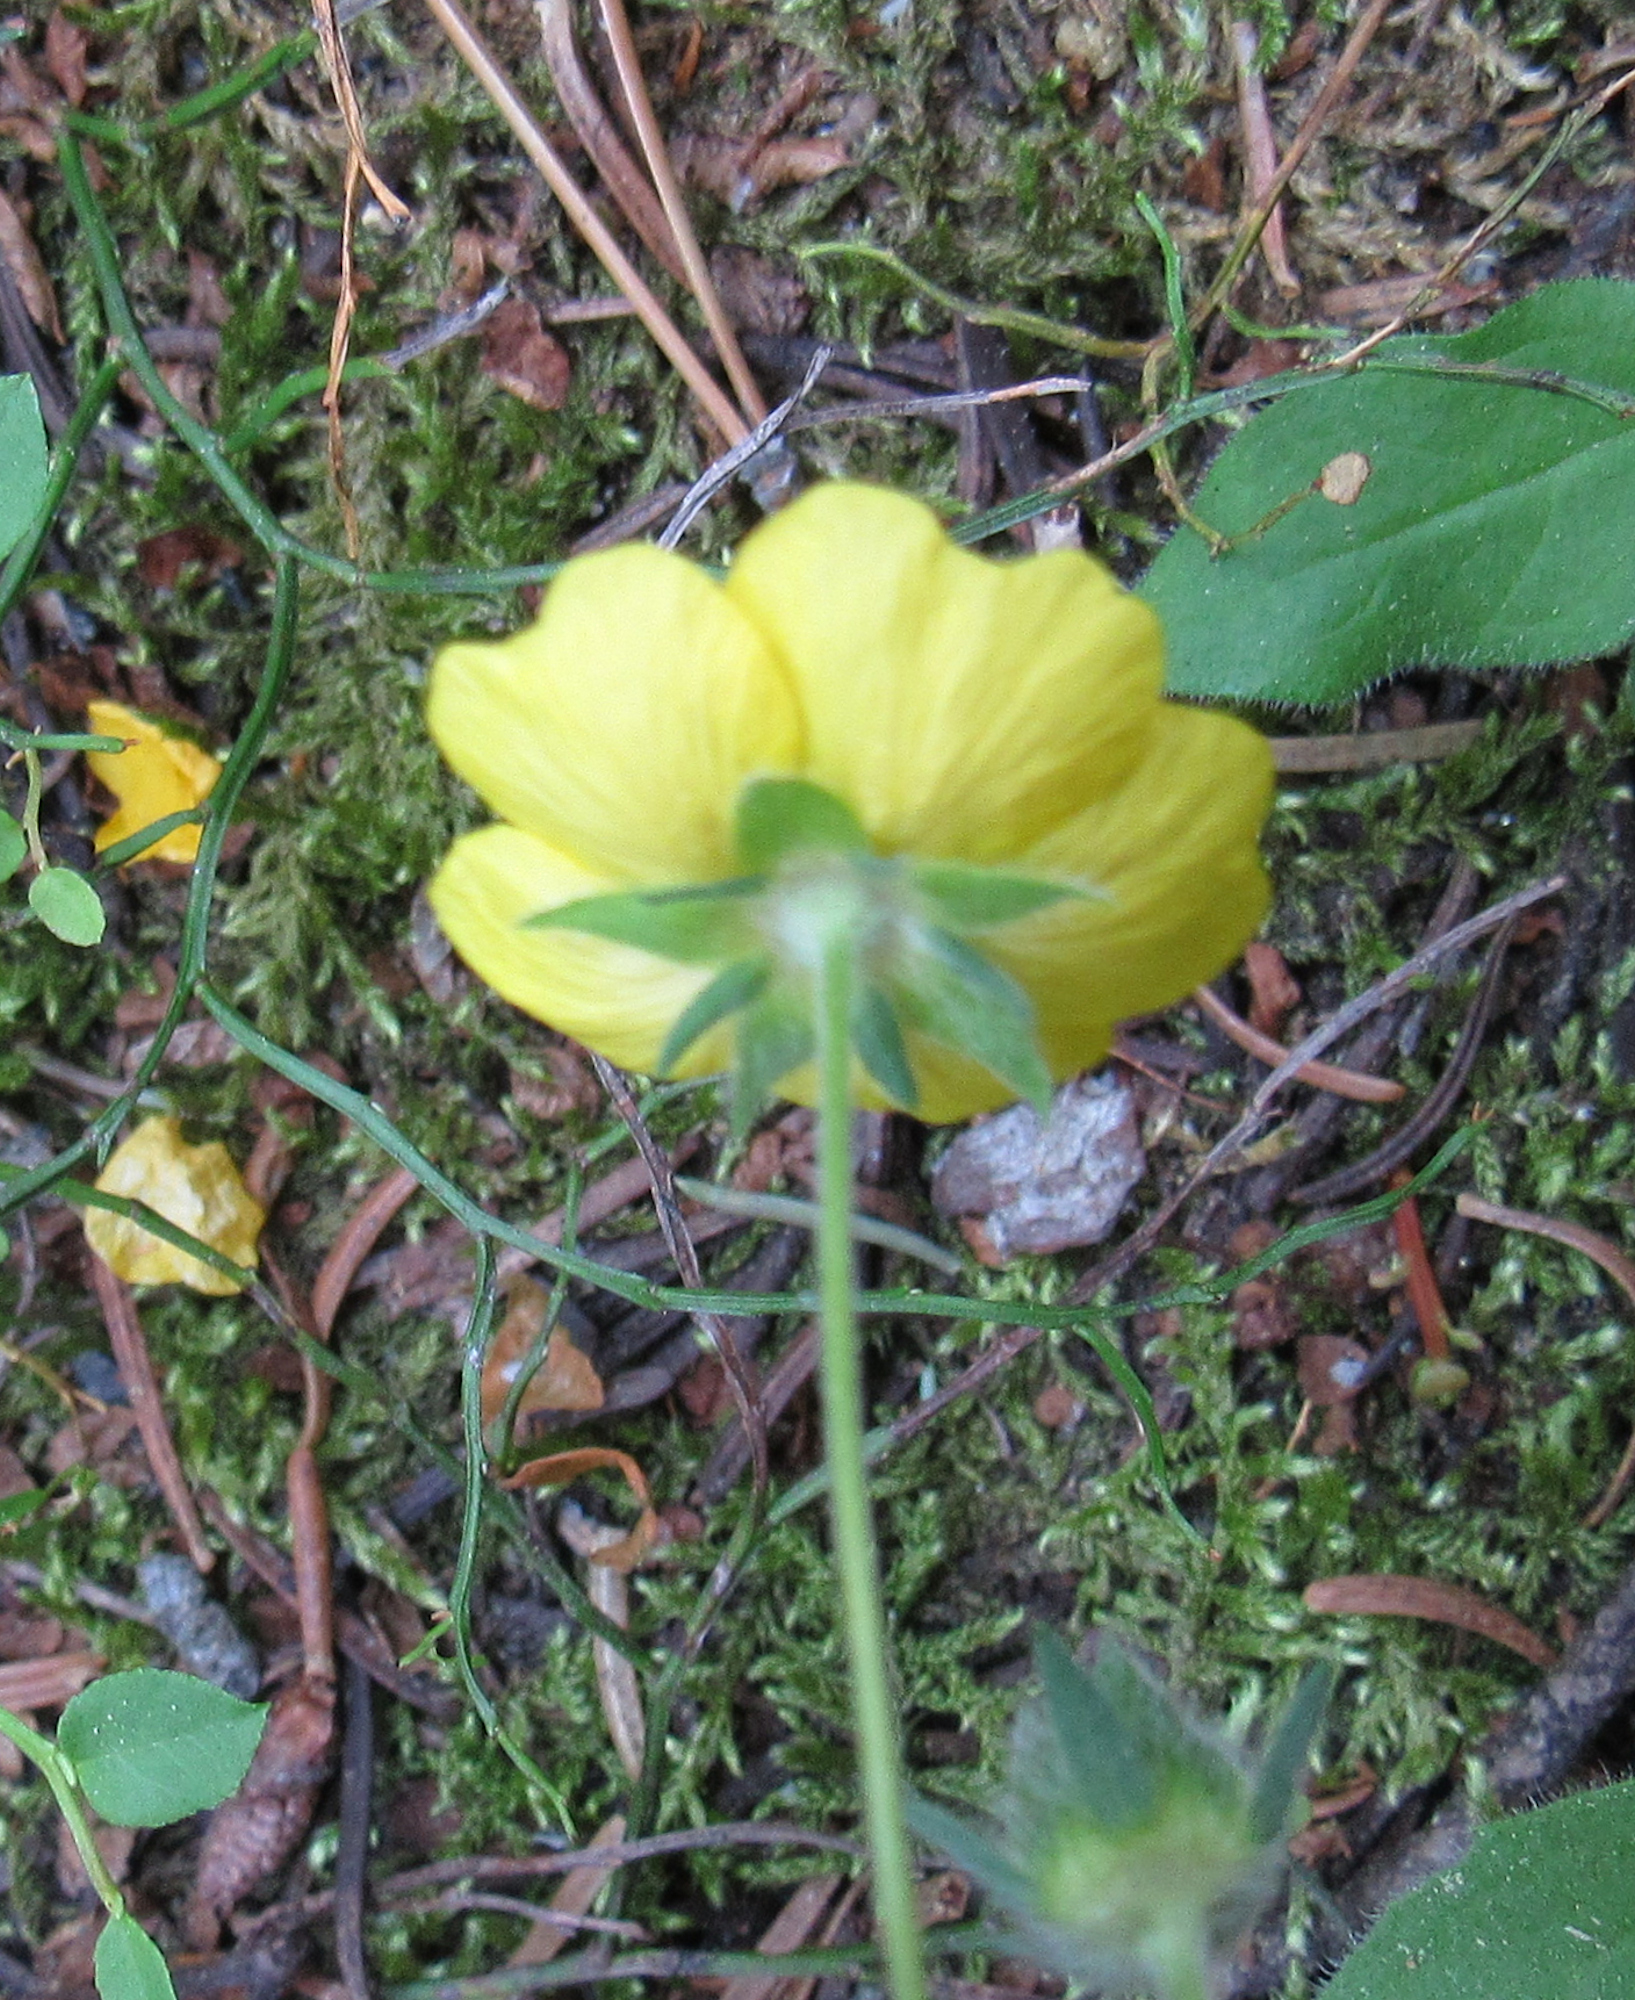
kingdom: Plantae
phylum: Tracheophyta
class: Magnoliopsida
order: Rosales
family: Rosaceae
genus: Potentilla
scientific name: Potentilla glaucophylla
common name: Blue-leaved cinquefoil
